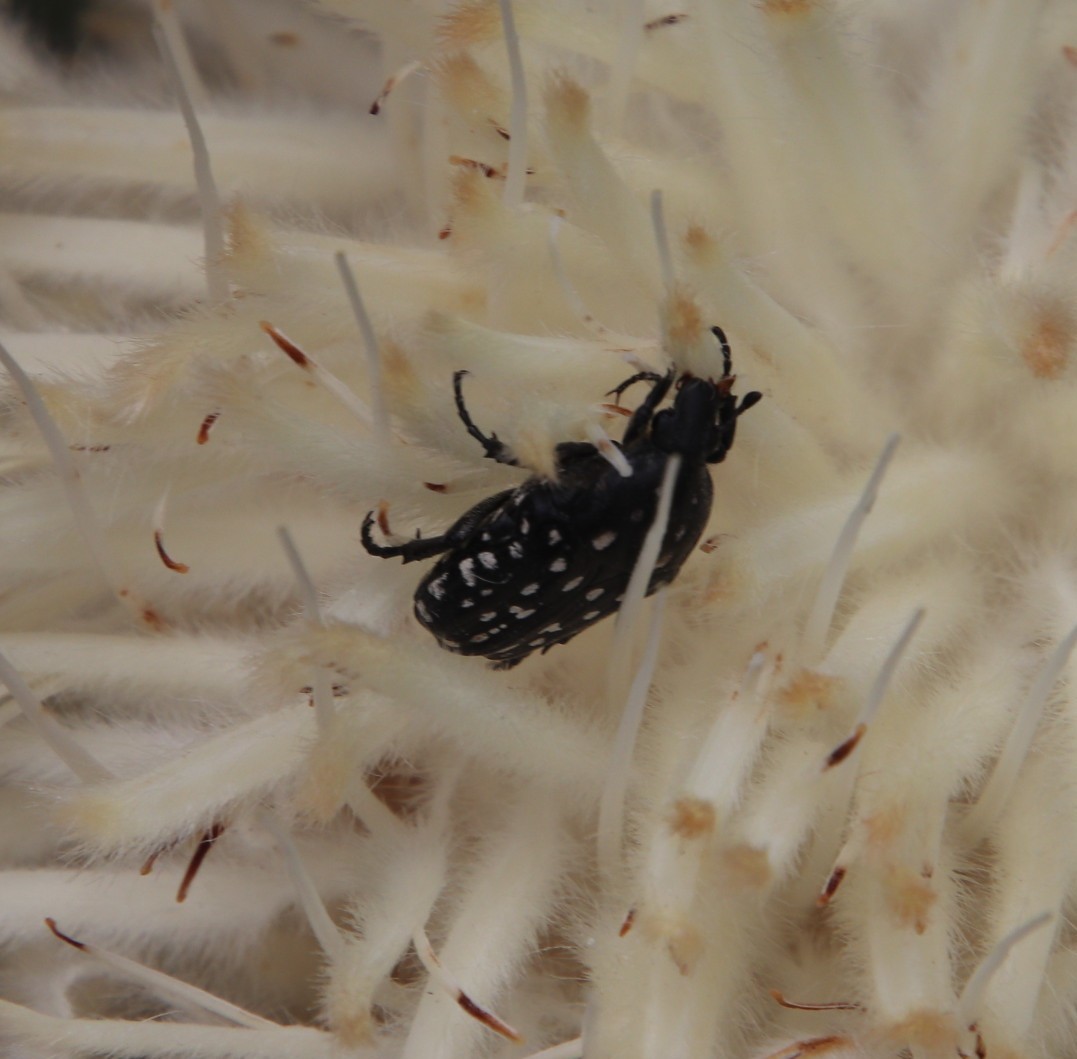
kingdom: Plantae
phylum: Tracheophyta
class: Magnoliopsida
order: Proteales
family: Proteaceae
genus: Protea
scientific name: Protea welwitschii
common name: Cluster-head protea
